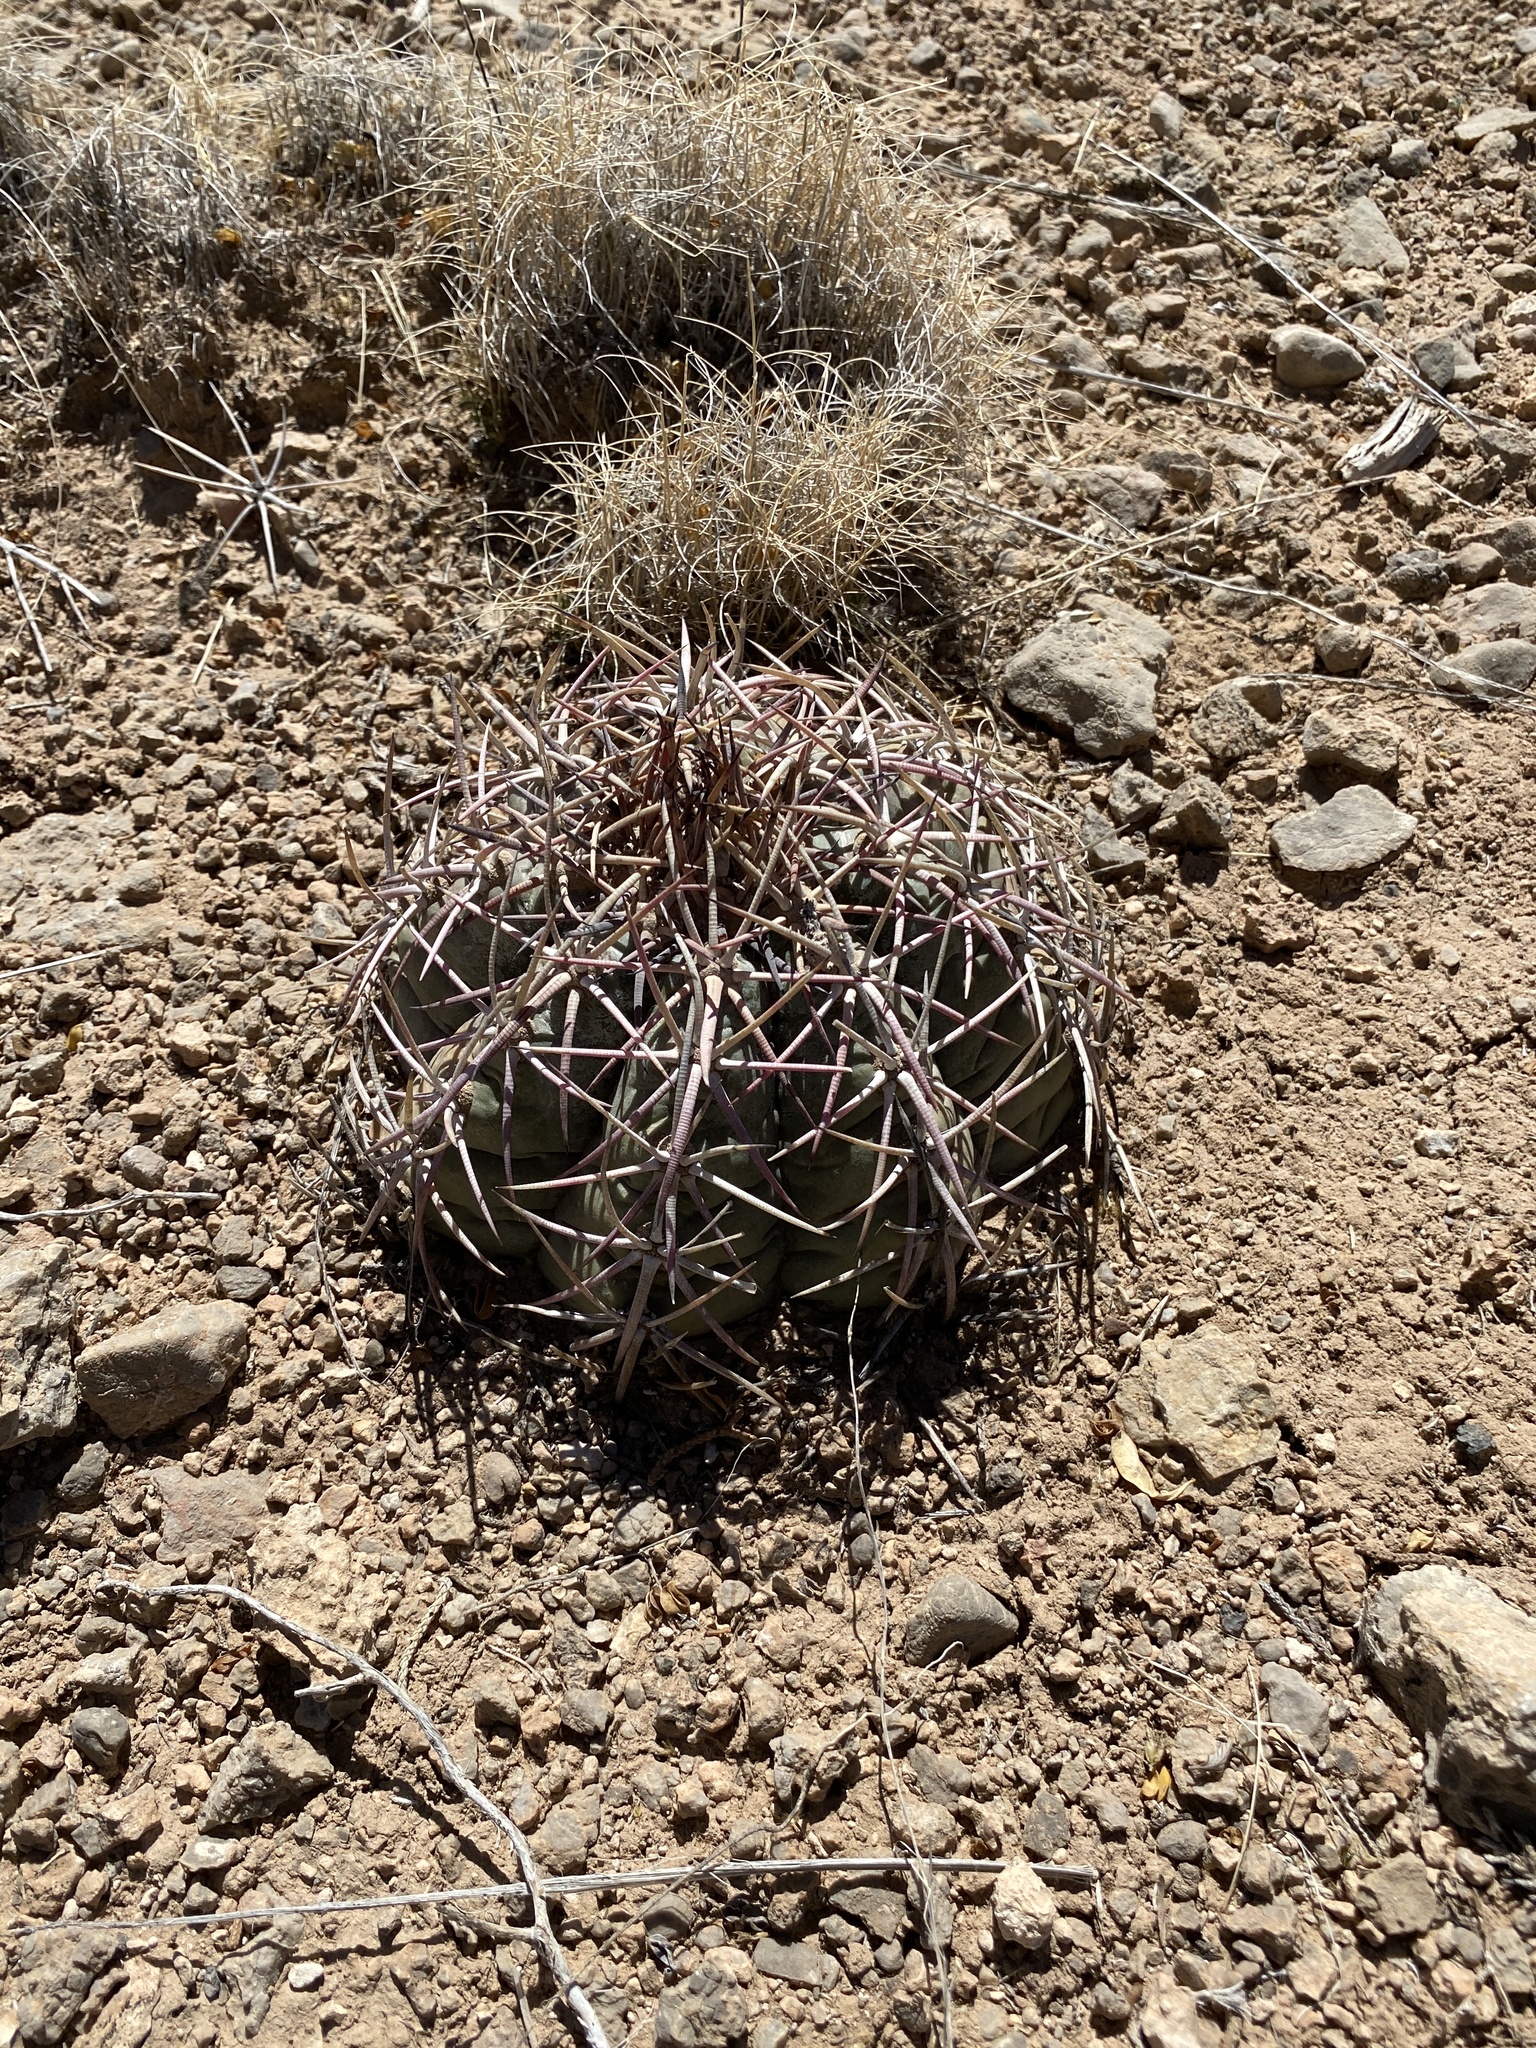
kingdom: Plantae
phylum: Tracheophyta
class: Magnoliopsida
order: Caryophyllales
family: Cactaceae
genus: Echinocactus
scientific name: Echinocactus horizonthalonius
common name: Devilshead
